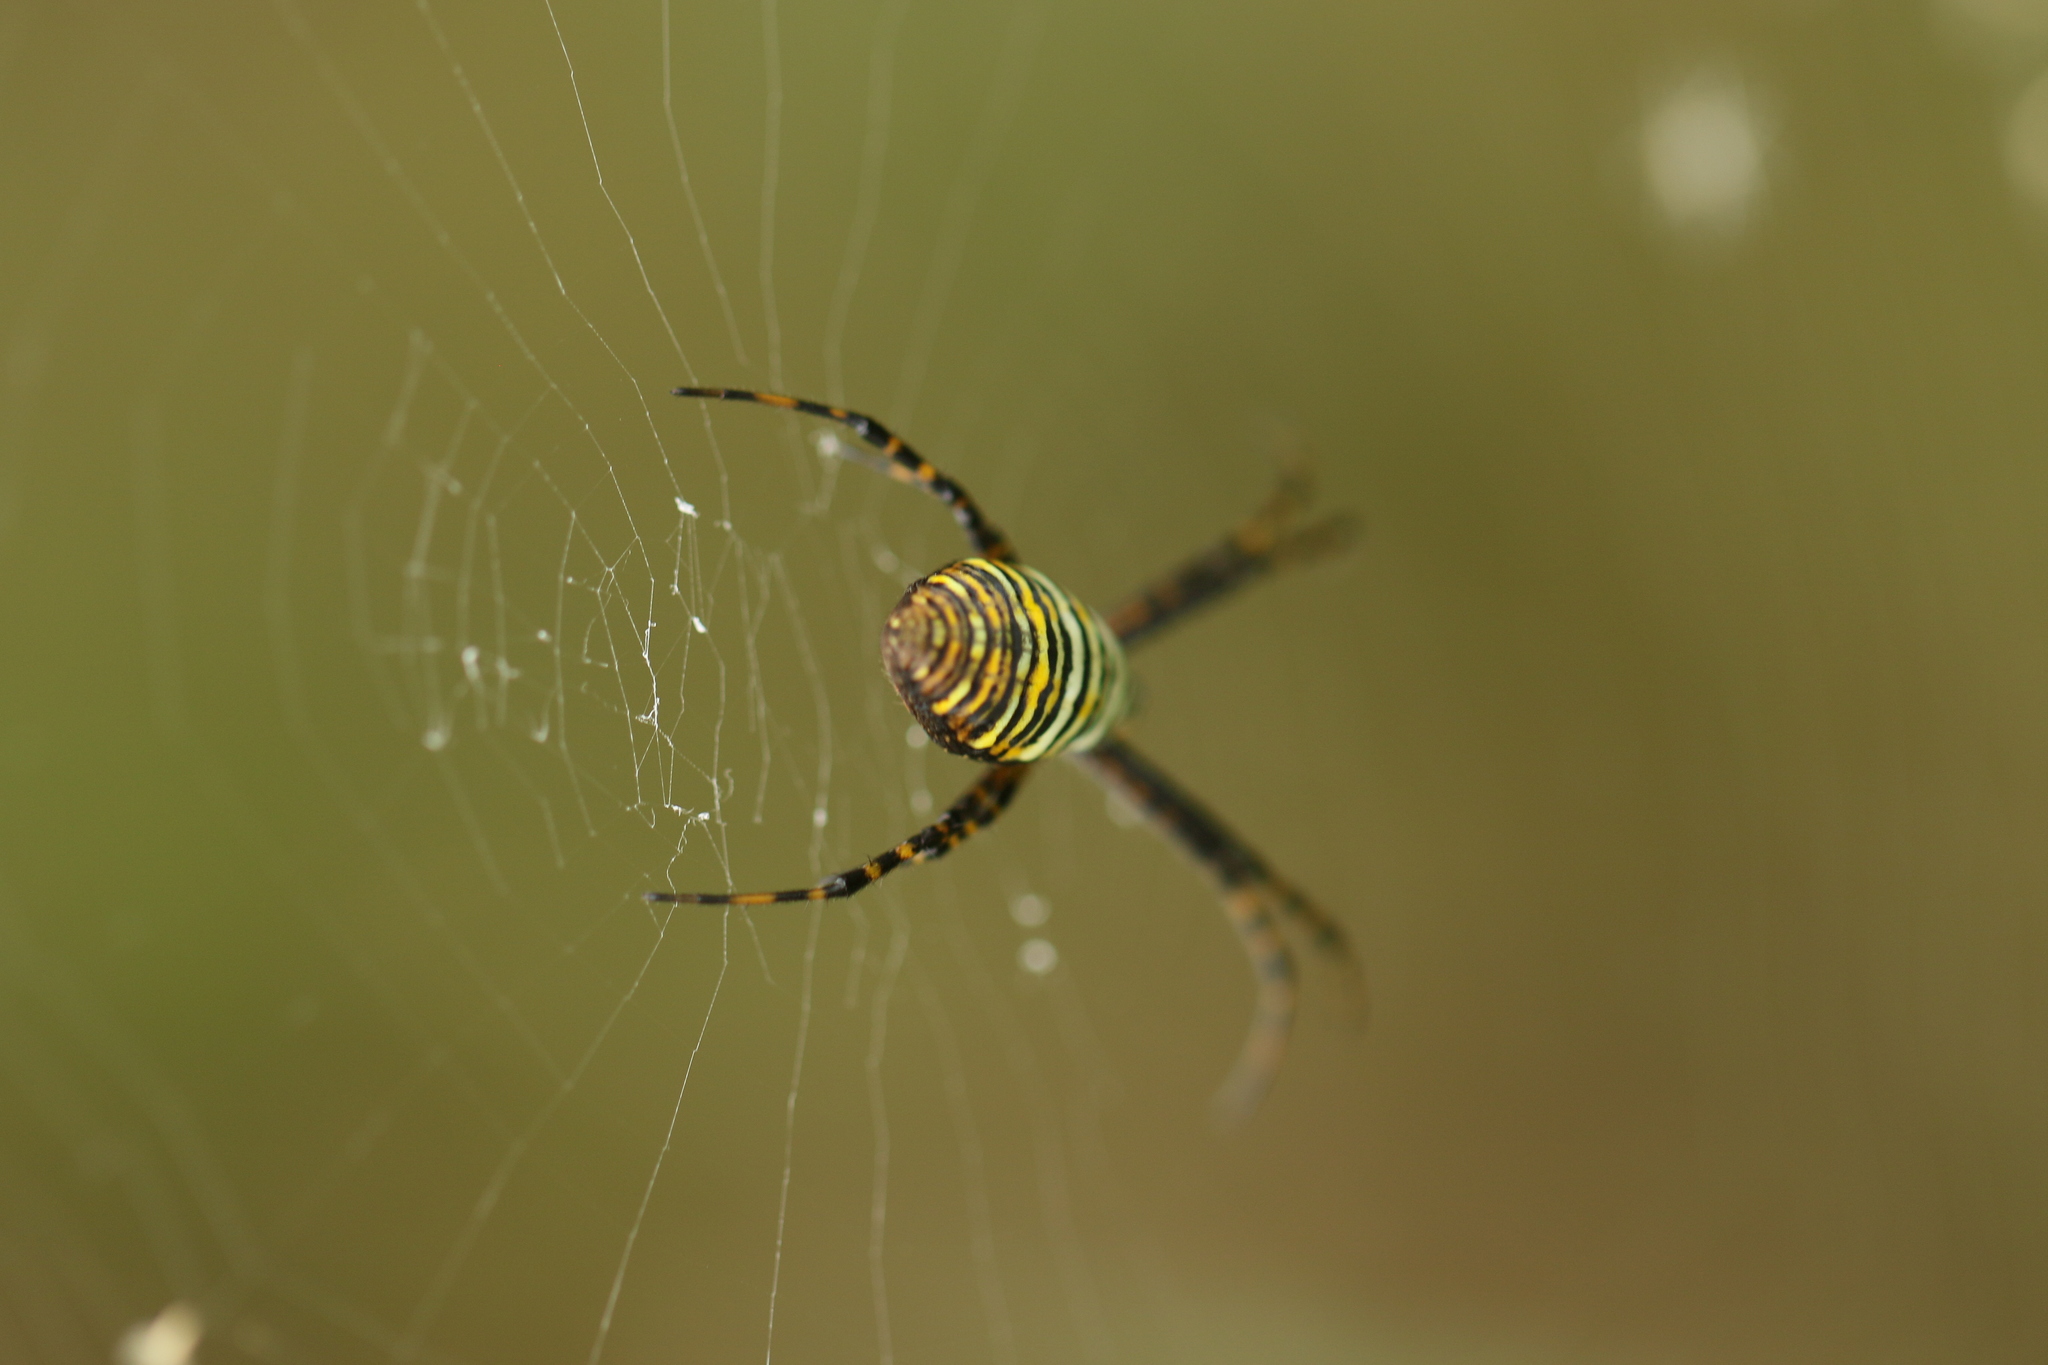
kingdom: Animalia
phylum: Arthropoda
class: Arachnida
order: Araneae
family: Araneidae
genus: Argiope
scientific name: Argiope trifasciata
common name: Banded garden spider
